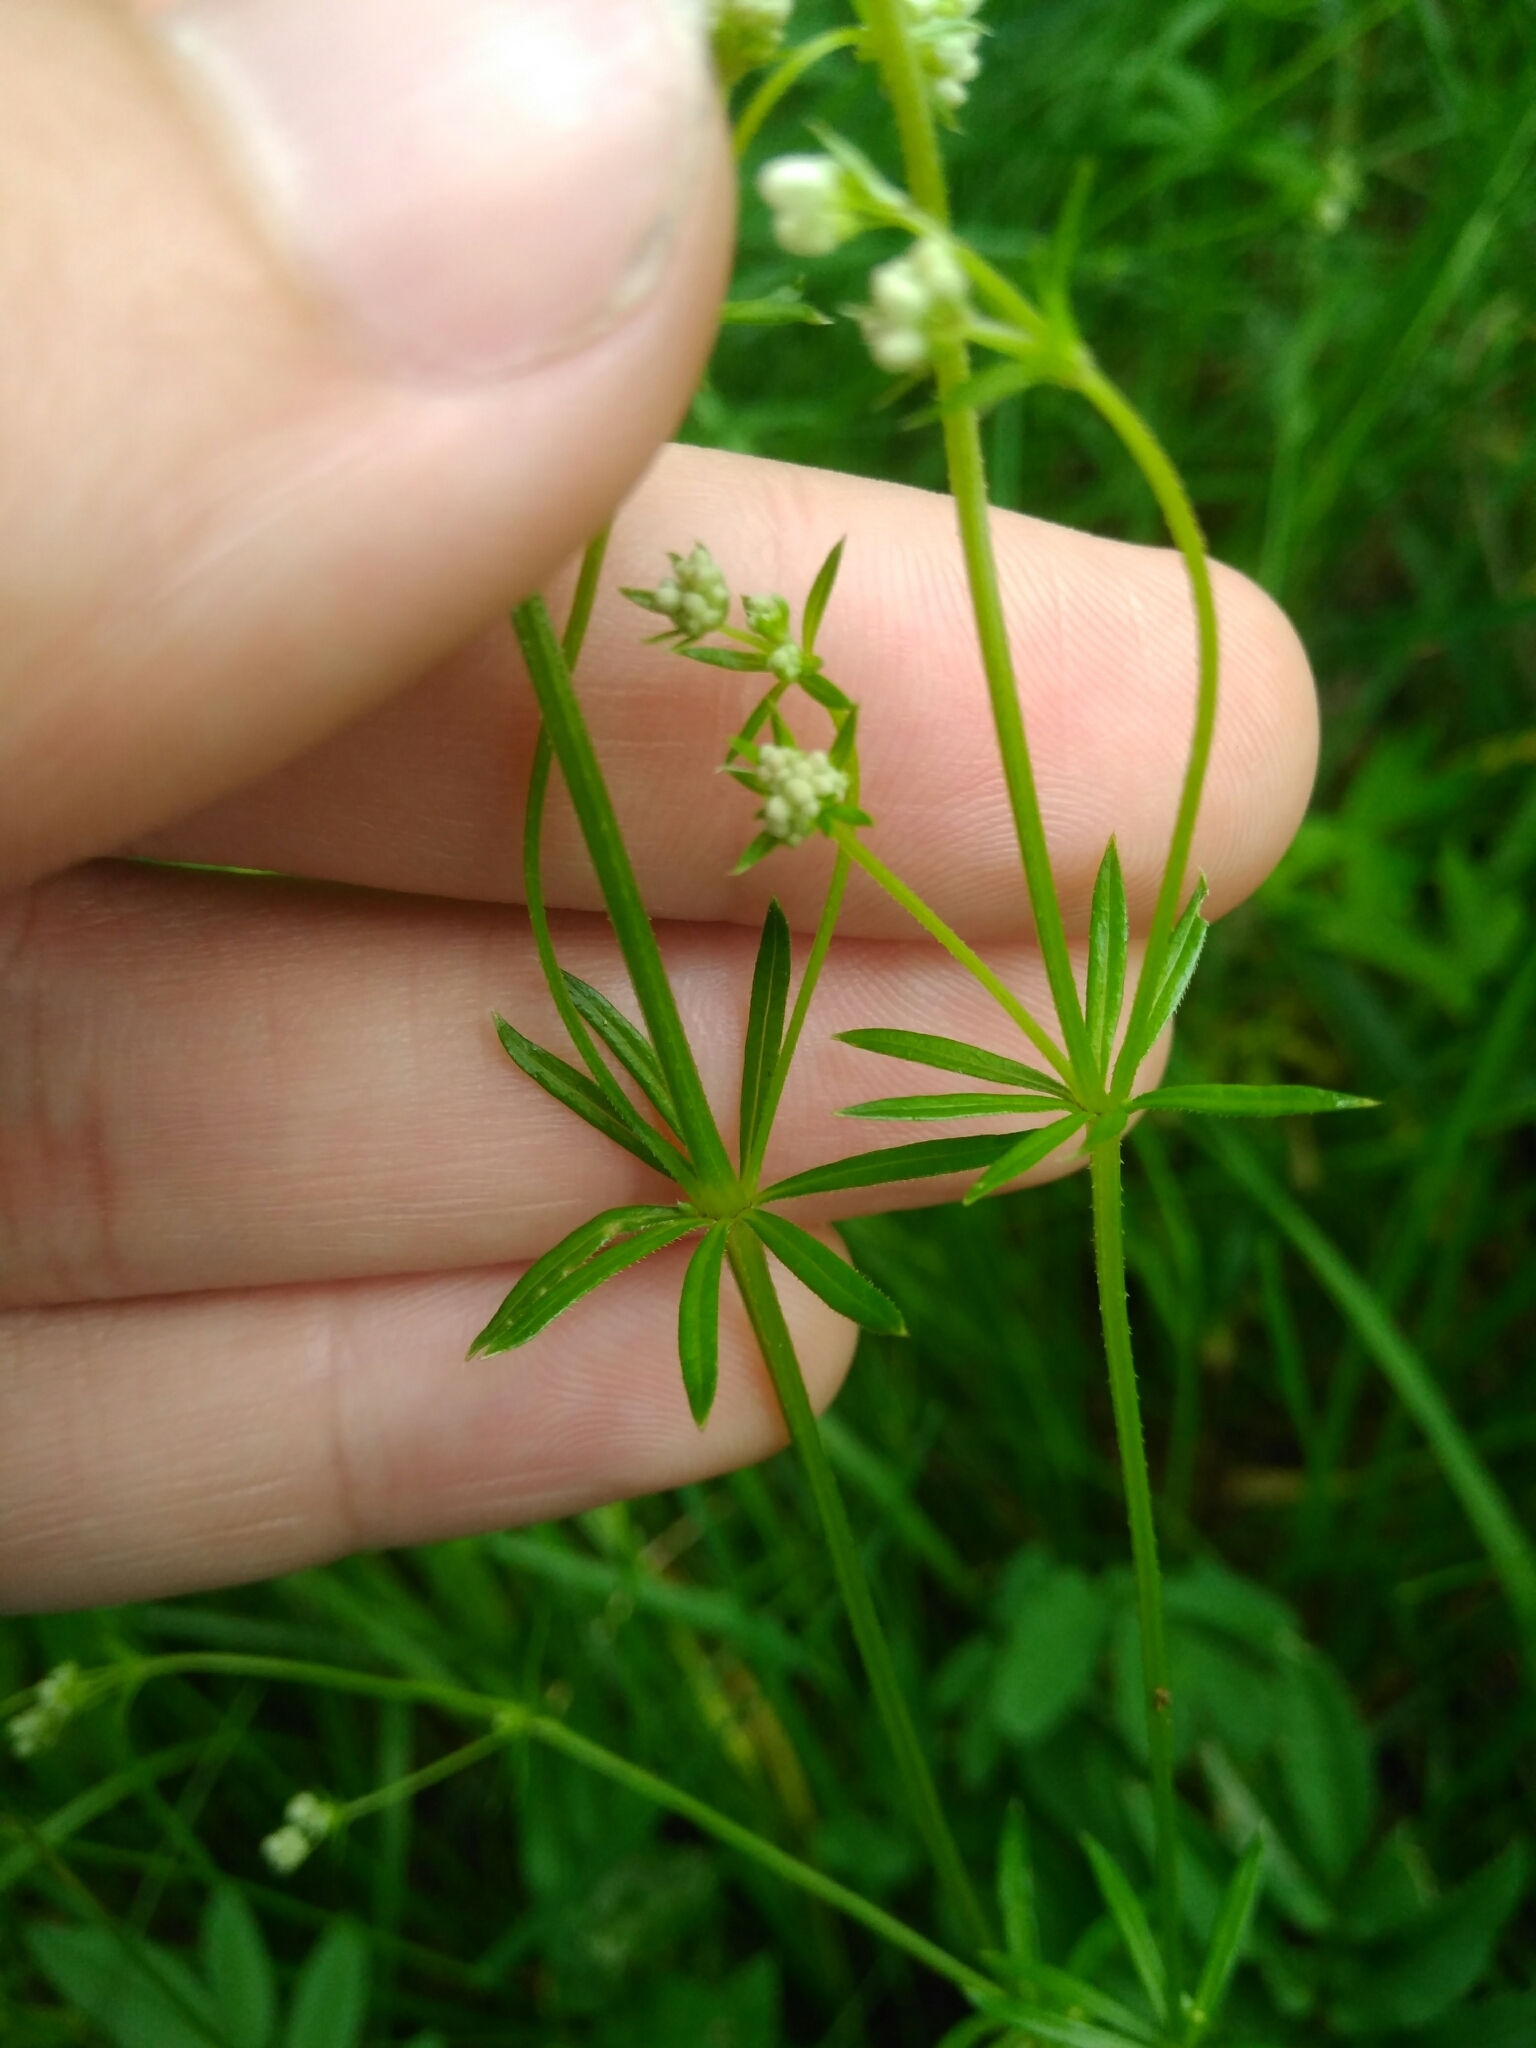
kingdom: Plantae
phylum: Tracheophyta
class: Magnoliopsida
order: Gentianales
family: Rubiaceae
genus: Galium
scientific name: Galium uliginosum
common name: Fen bedstraw
